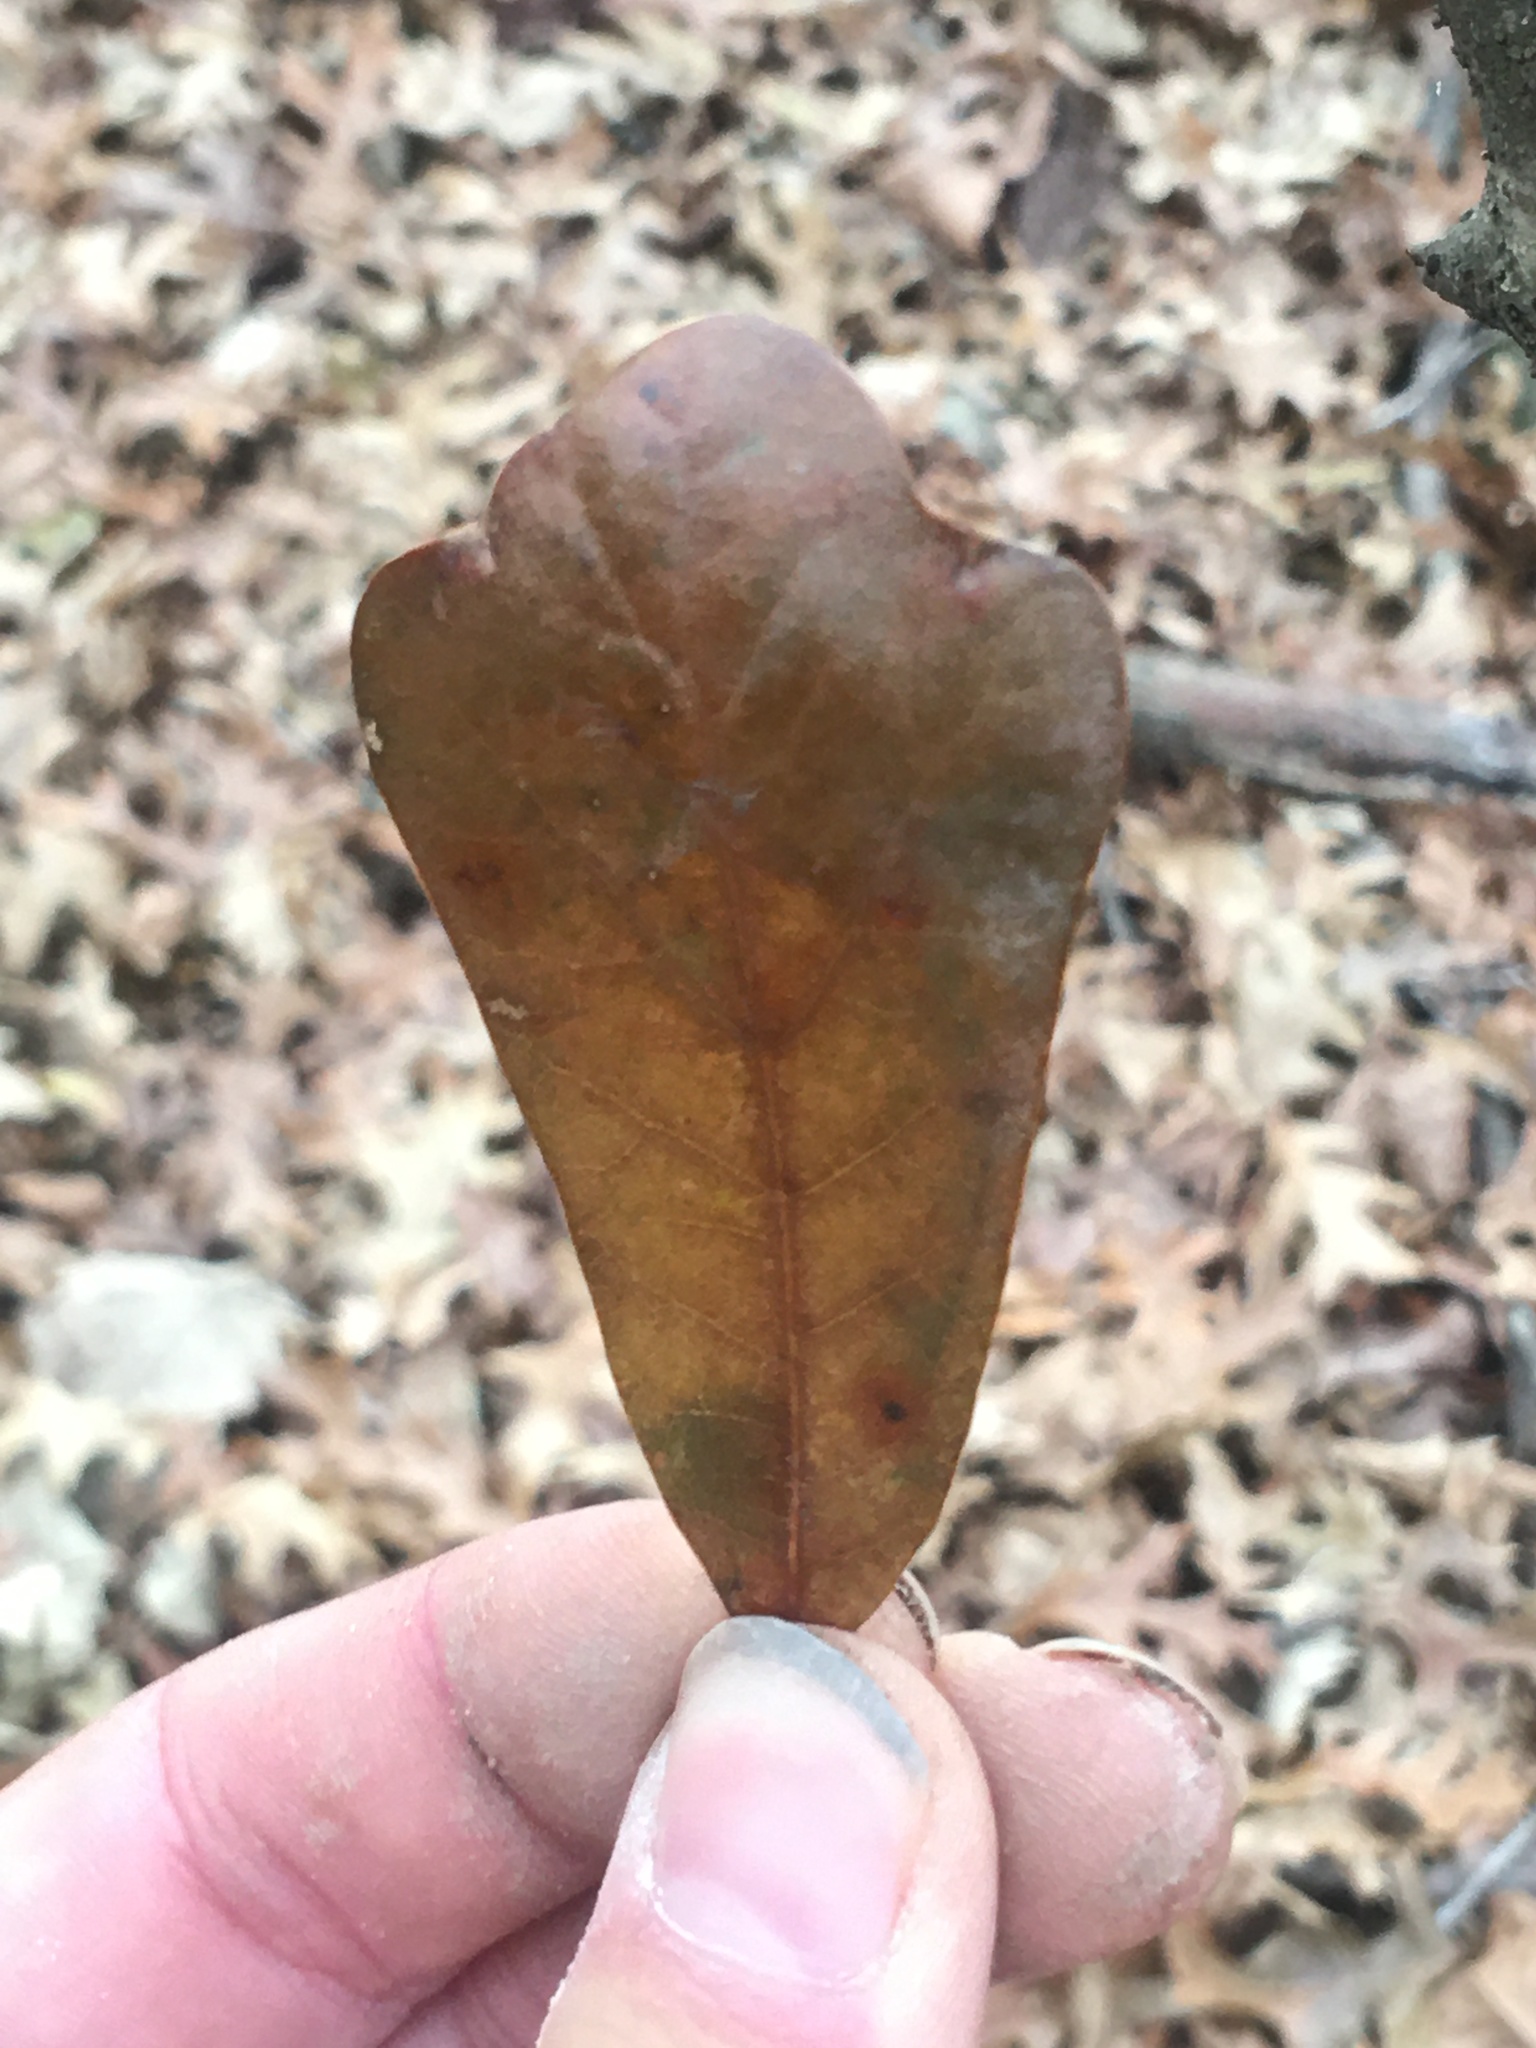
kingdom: Plantae
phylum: Tracheophyta
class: Magnoliopsida
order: Fagales
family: Fagaceae
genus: Quercus
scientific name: Quercus nigra
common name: Water oak
